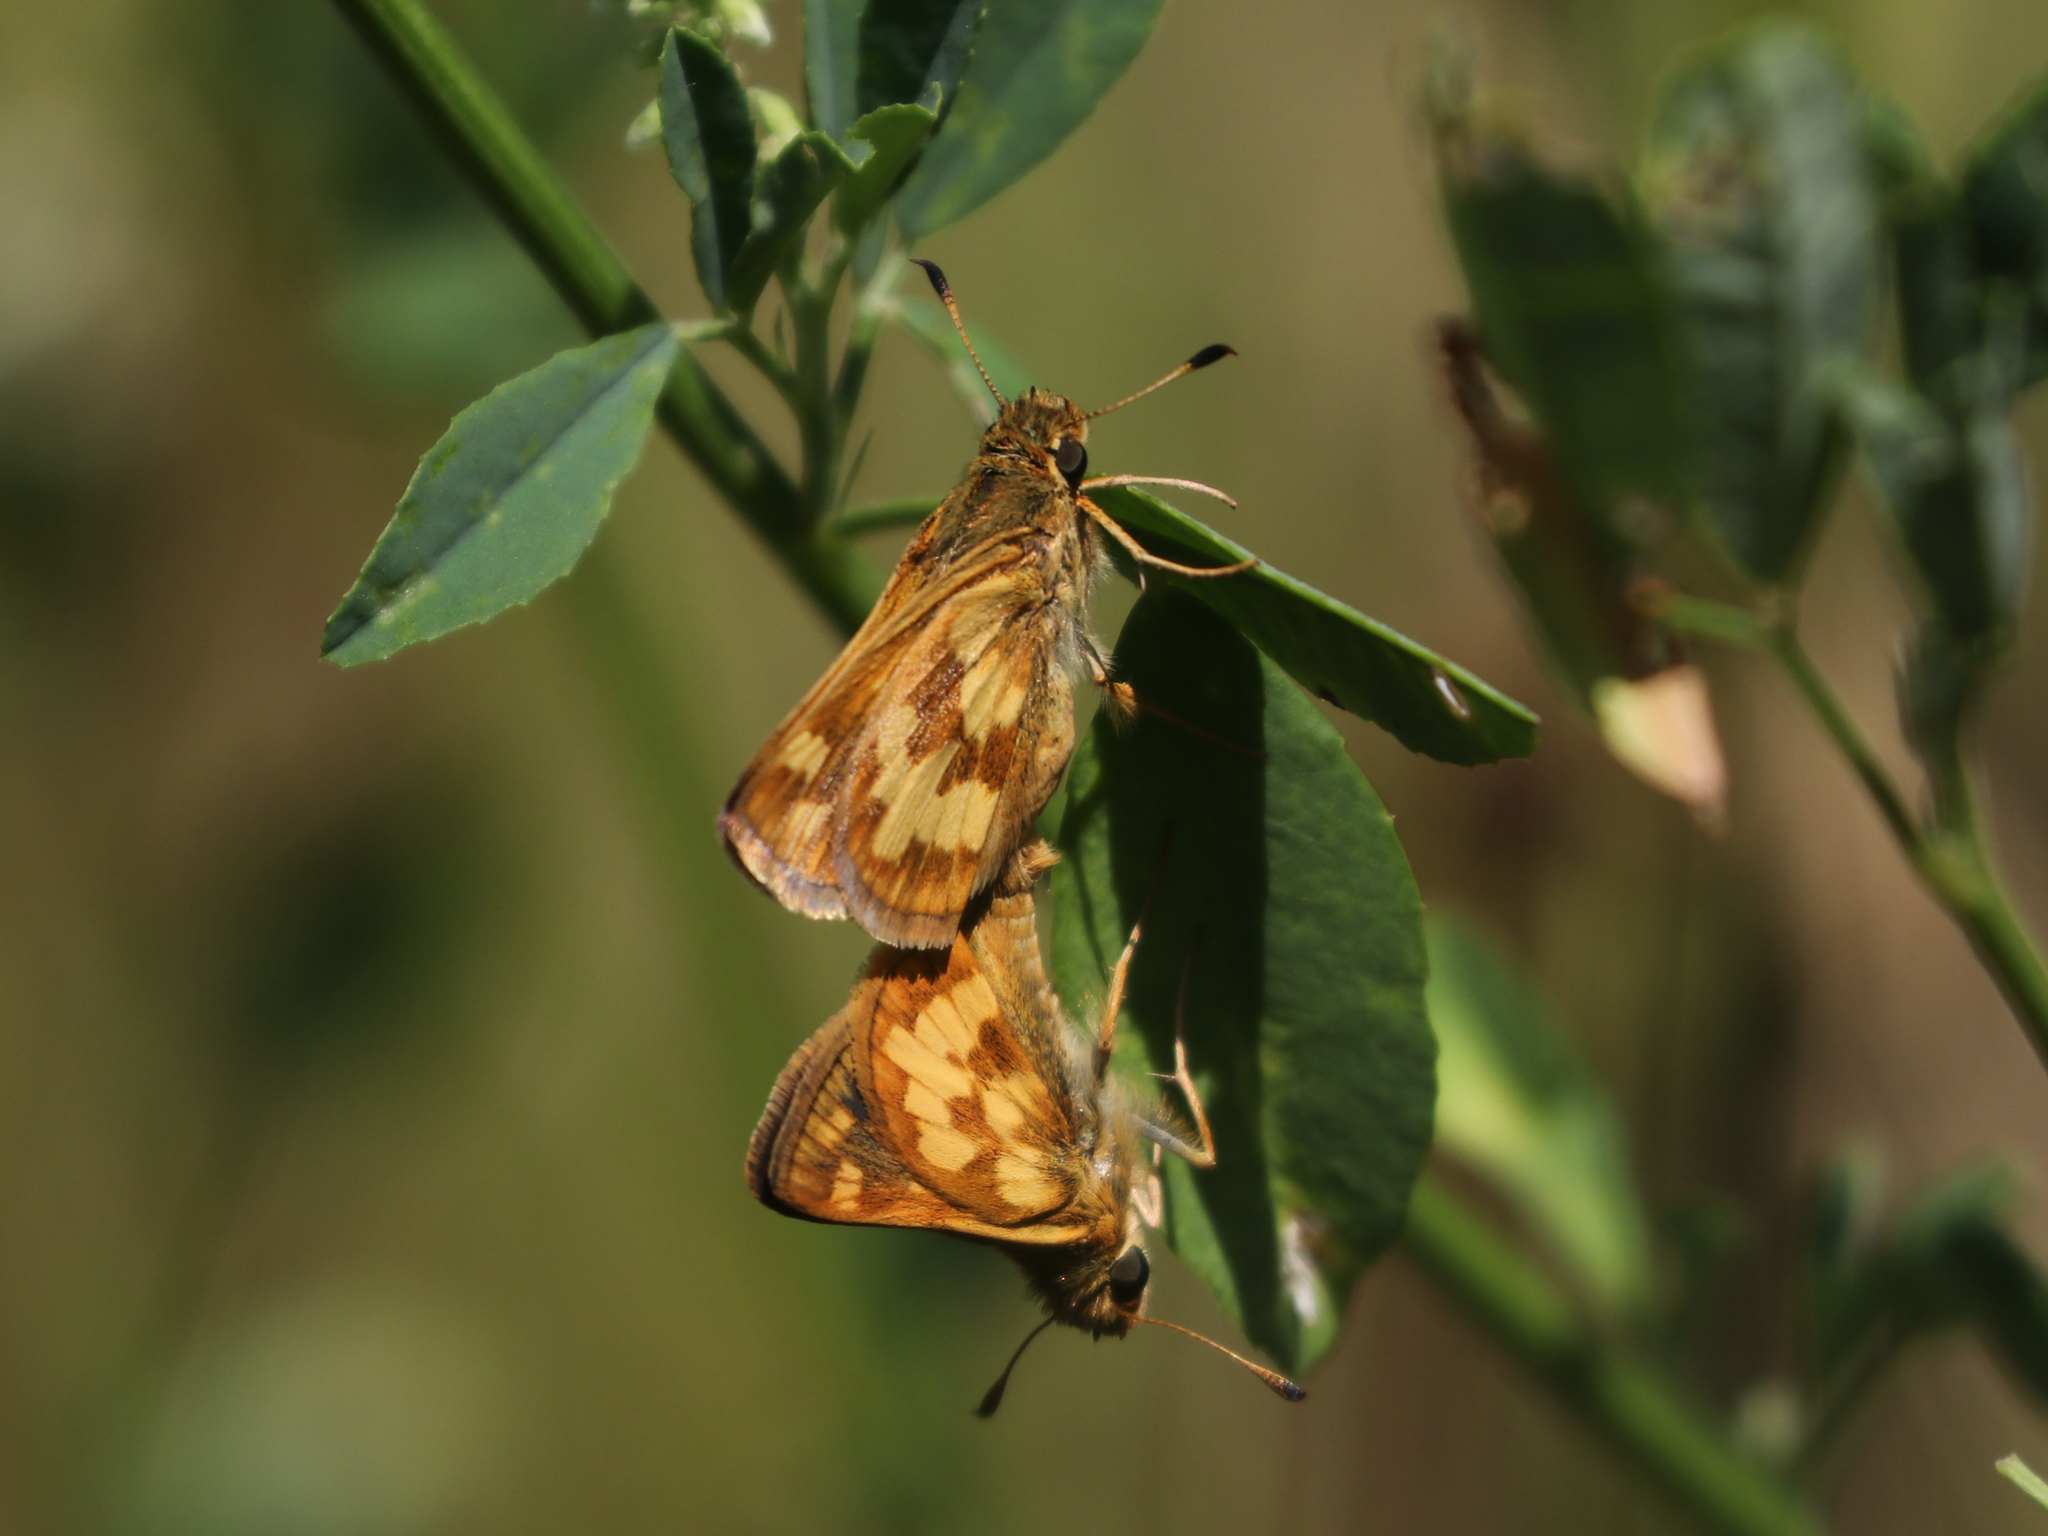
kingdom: Animalia
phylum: Arthropoda
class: Insecta
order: Lepidoptera
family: Hesperiidae
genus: Polites
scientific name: Polites coras
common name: Peck's skipper
